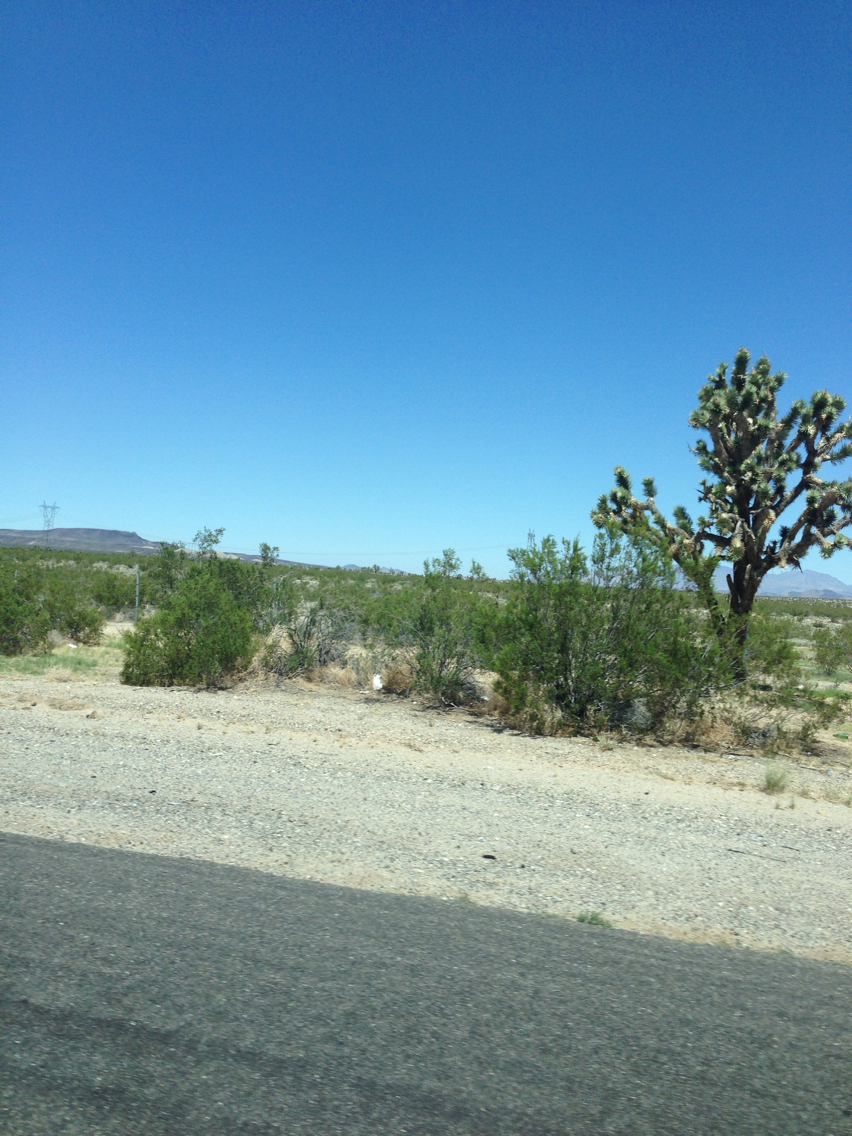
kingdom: Plantae
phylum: Tracheophyta
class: Liliopsida
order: Asparagales
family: Asparagaceae
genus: Yucca
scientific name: Yucca brevifolia
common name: Joshua tree
